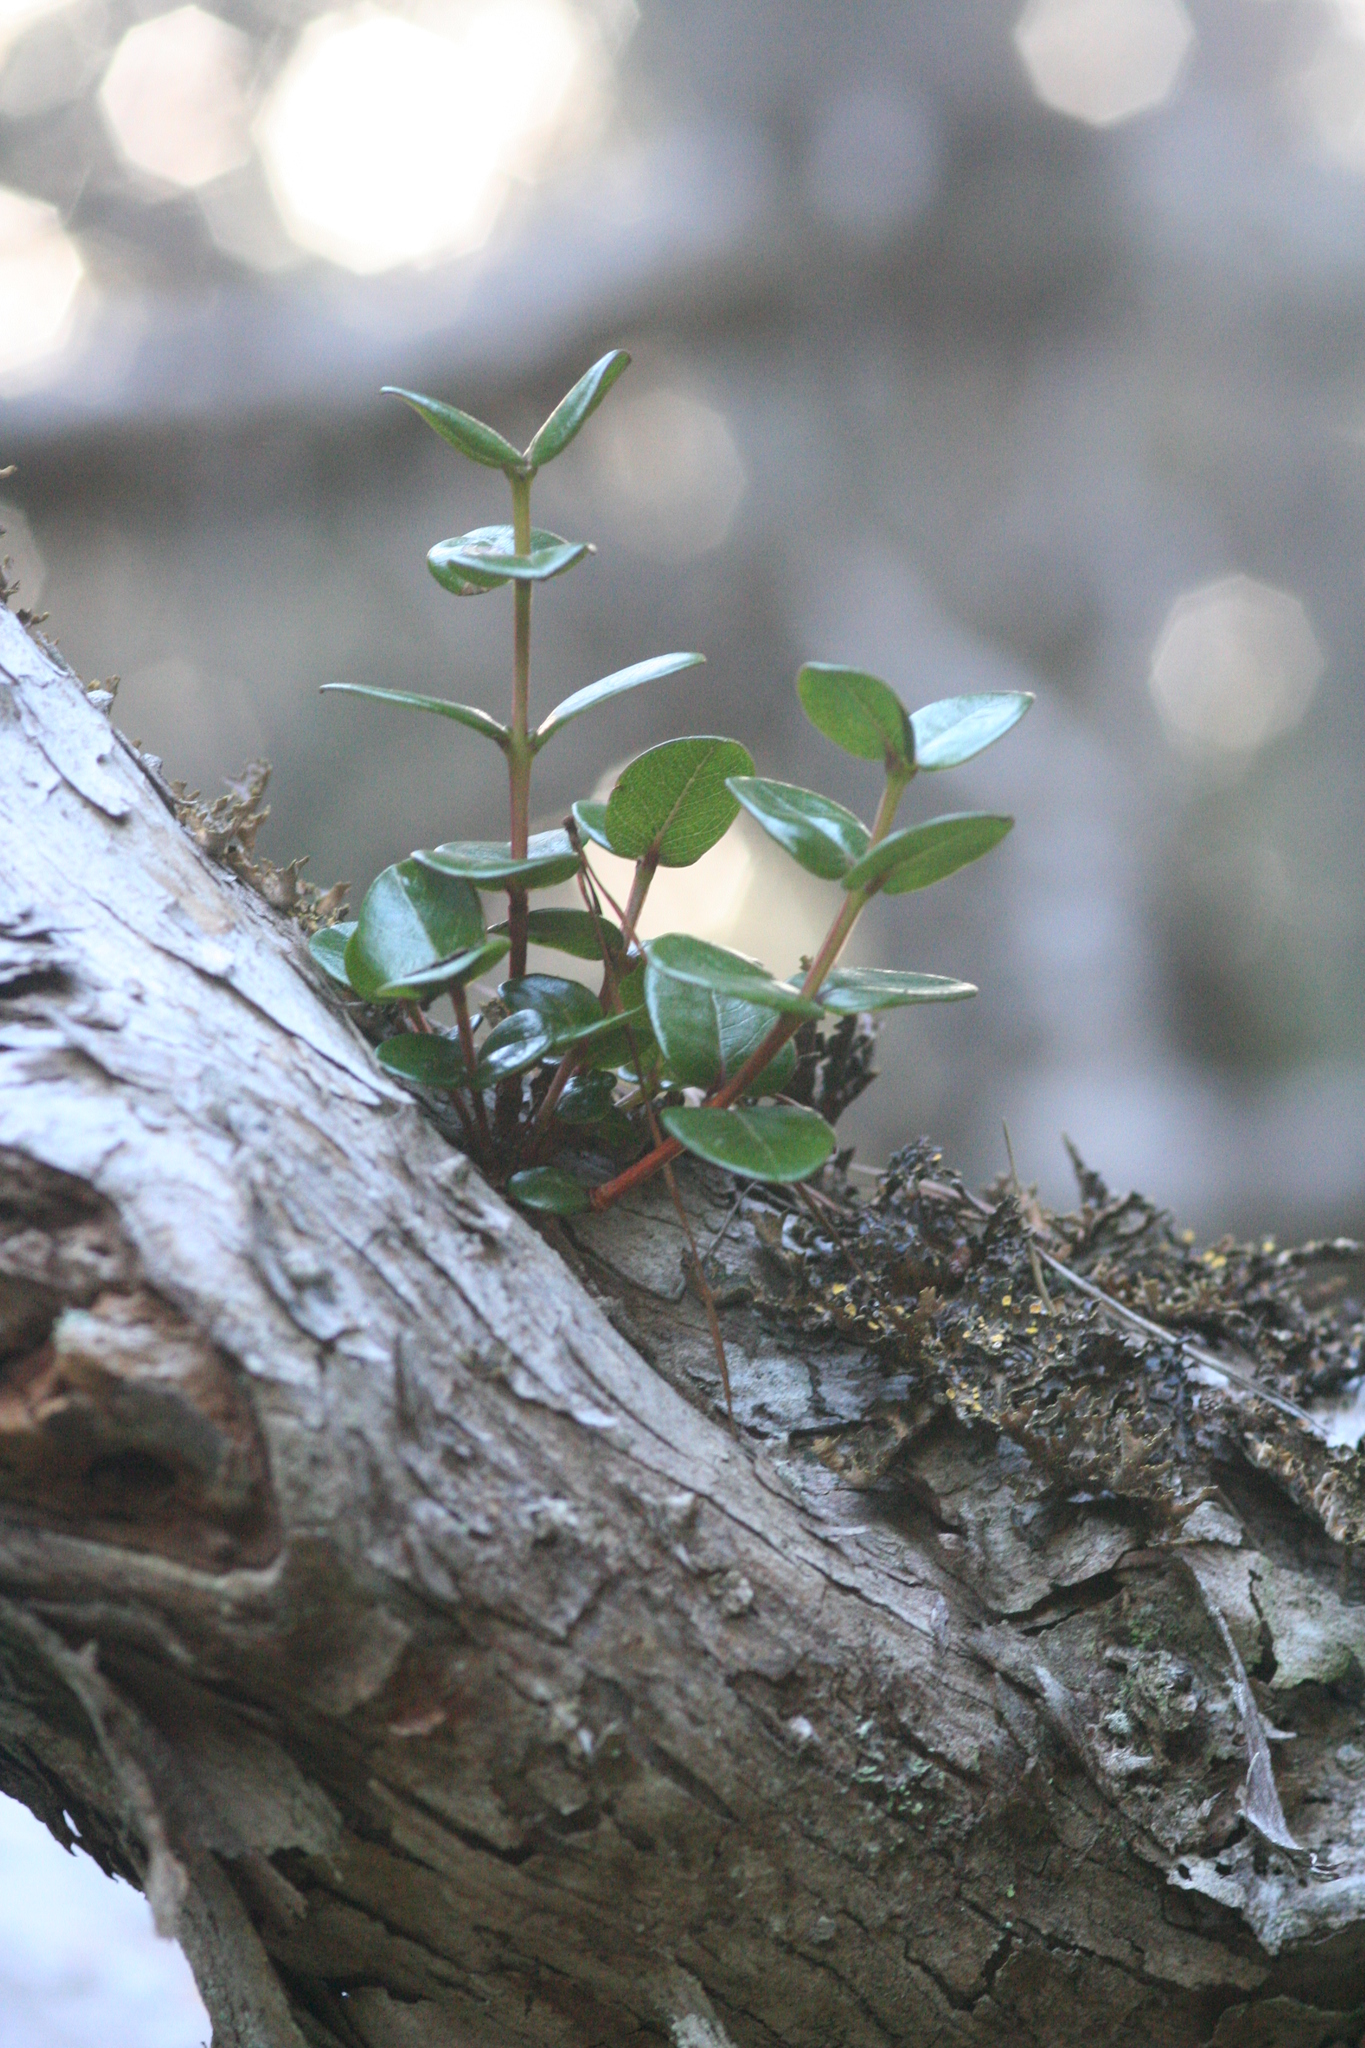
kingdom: Plantae
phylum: Tracheophyta
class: Magnoliopsida
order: Myrtales
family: Myrtaceae
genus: Metrosideros
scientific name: Metrosideros polymorpha
